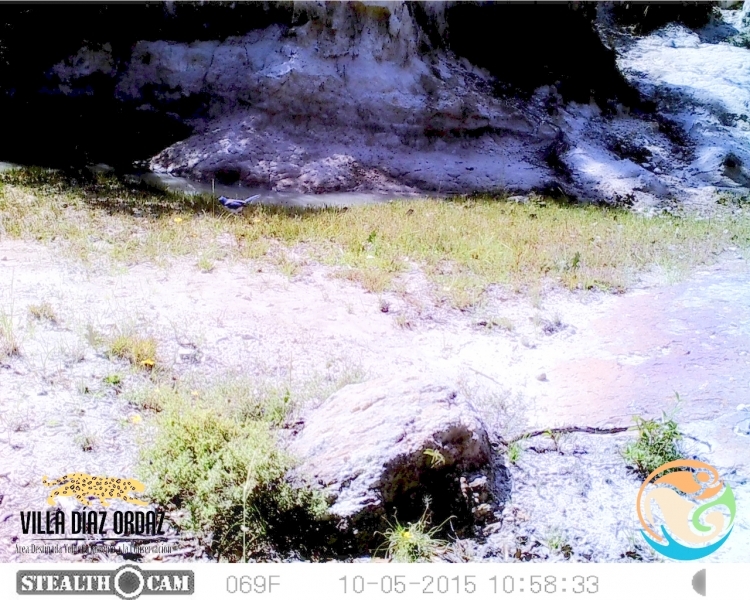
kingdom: Animalia
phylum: Chordata
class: Aves
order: Passeriformes
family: Corvidae
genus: Aphelocoma
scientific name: Aphelocoma woodhouseii
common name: Woodhouse's scrub-jay
